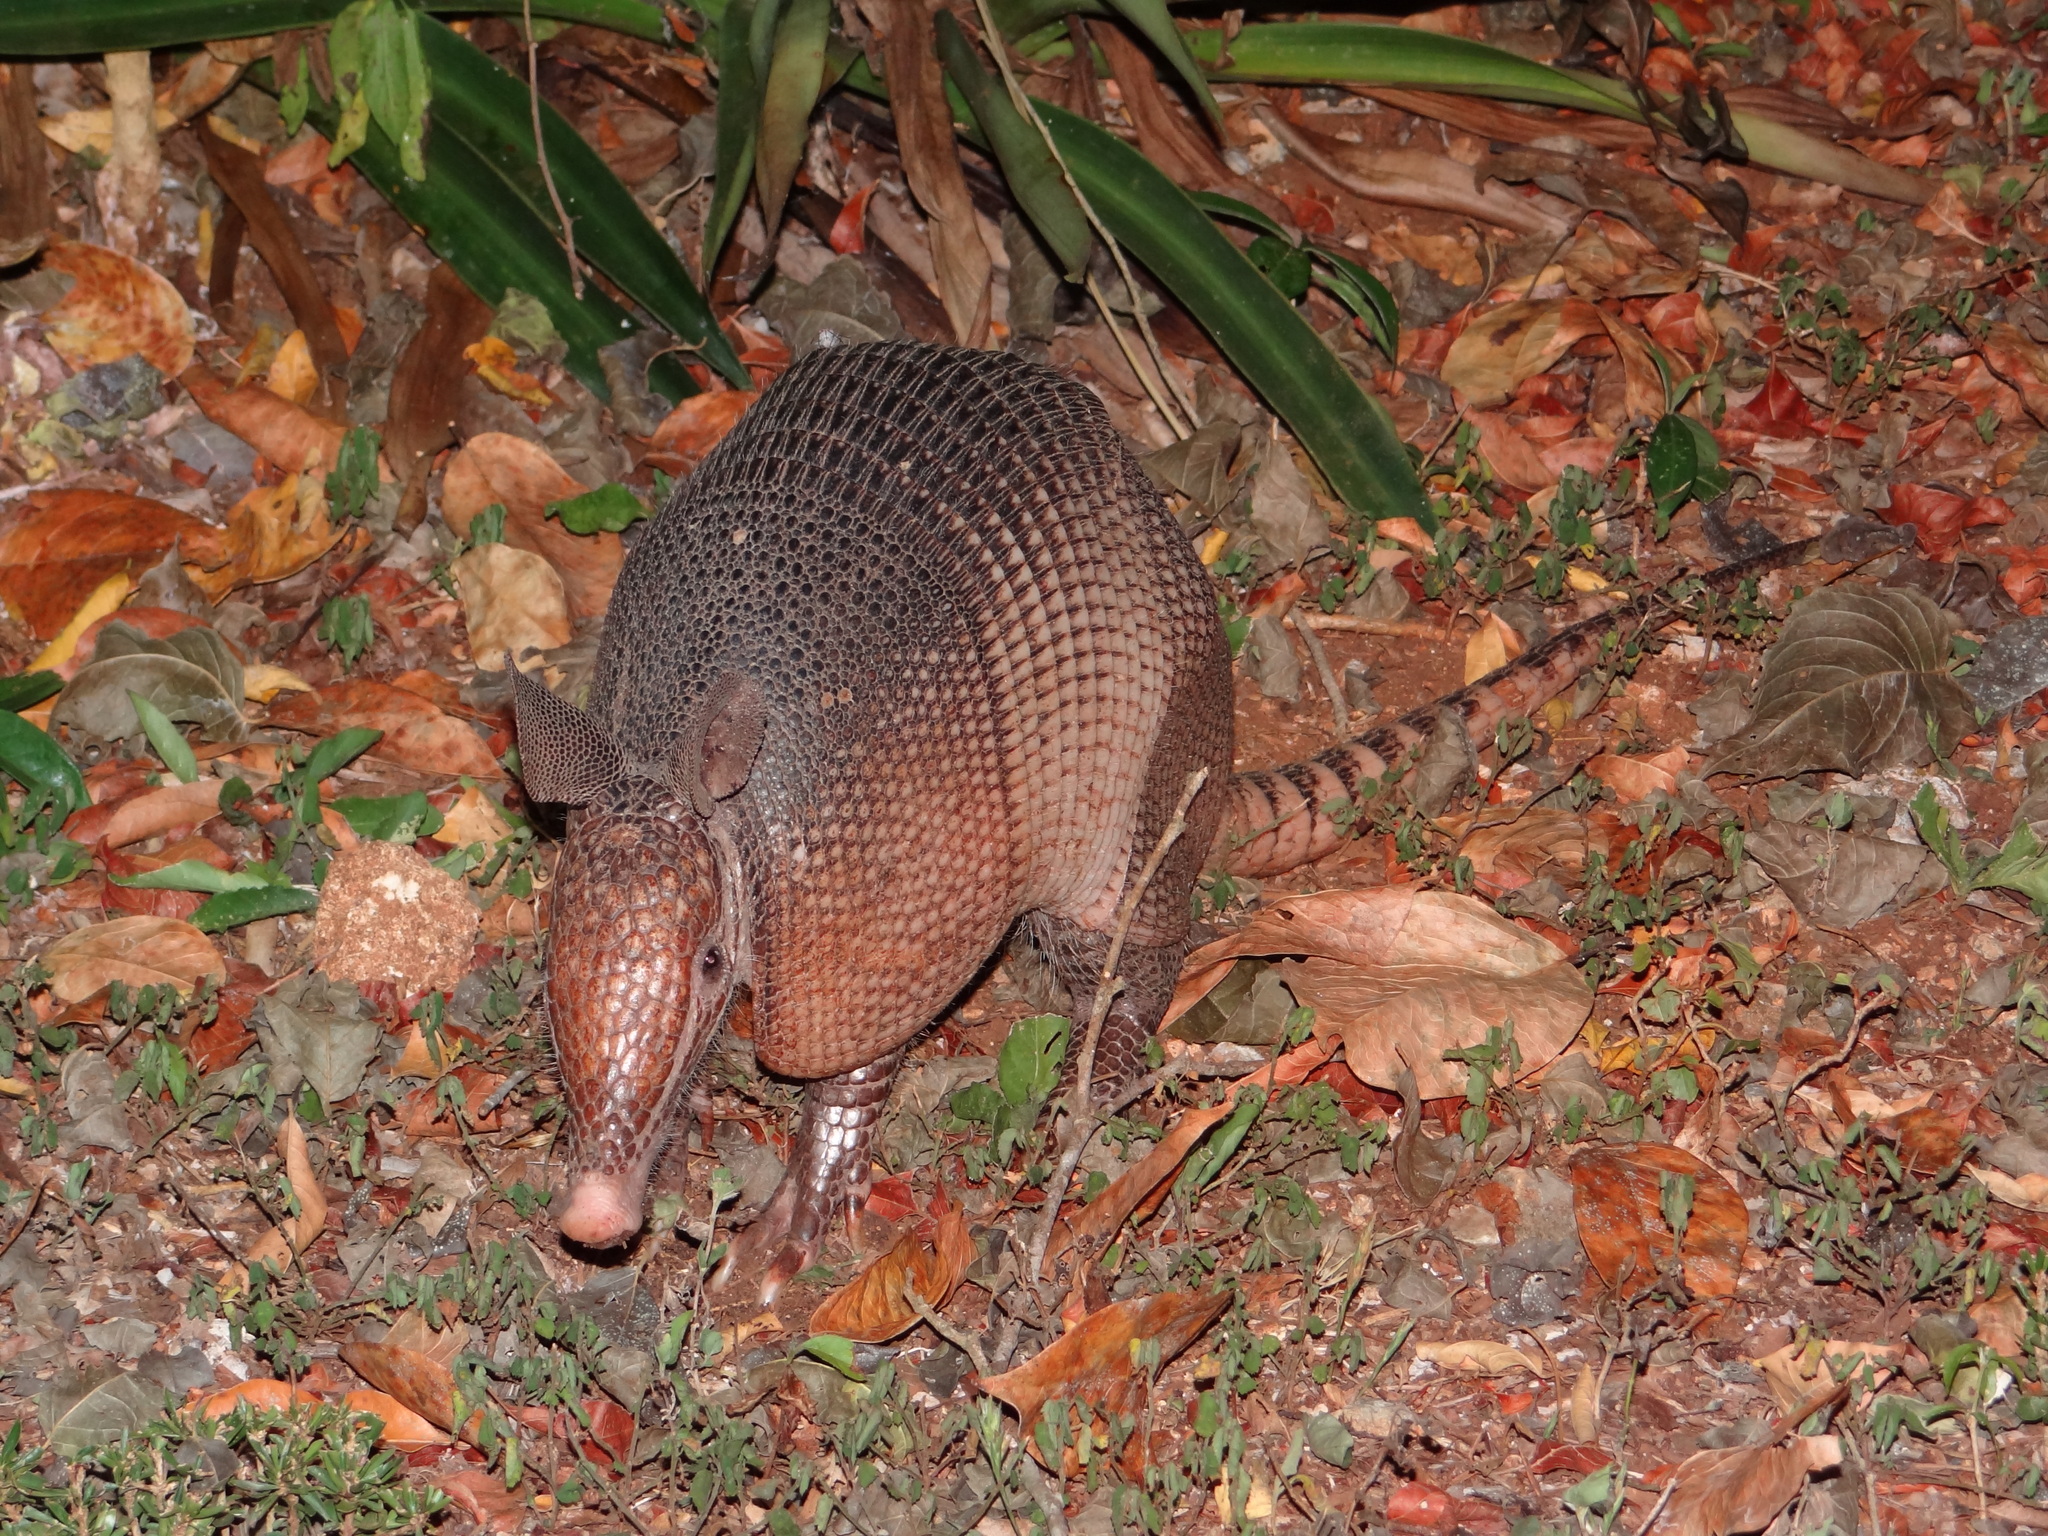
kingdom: Animalia
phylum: Chordata
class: Mammalia
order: Cingulata
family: Dasypodidae
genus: Dasypus
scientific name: Dasypus novemcinctus
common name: Nine-banded armadillo
